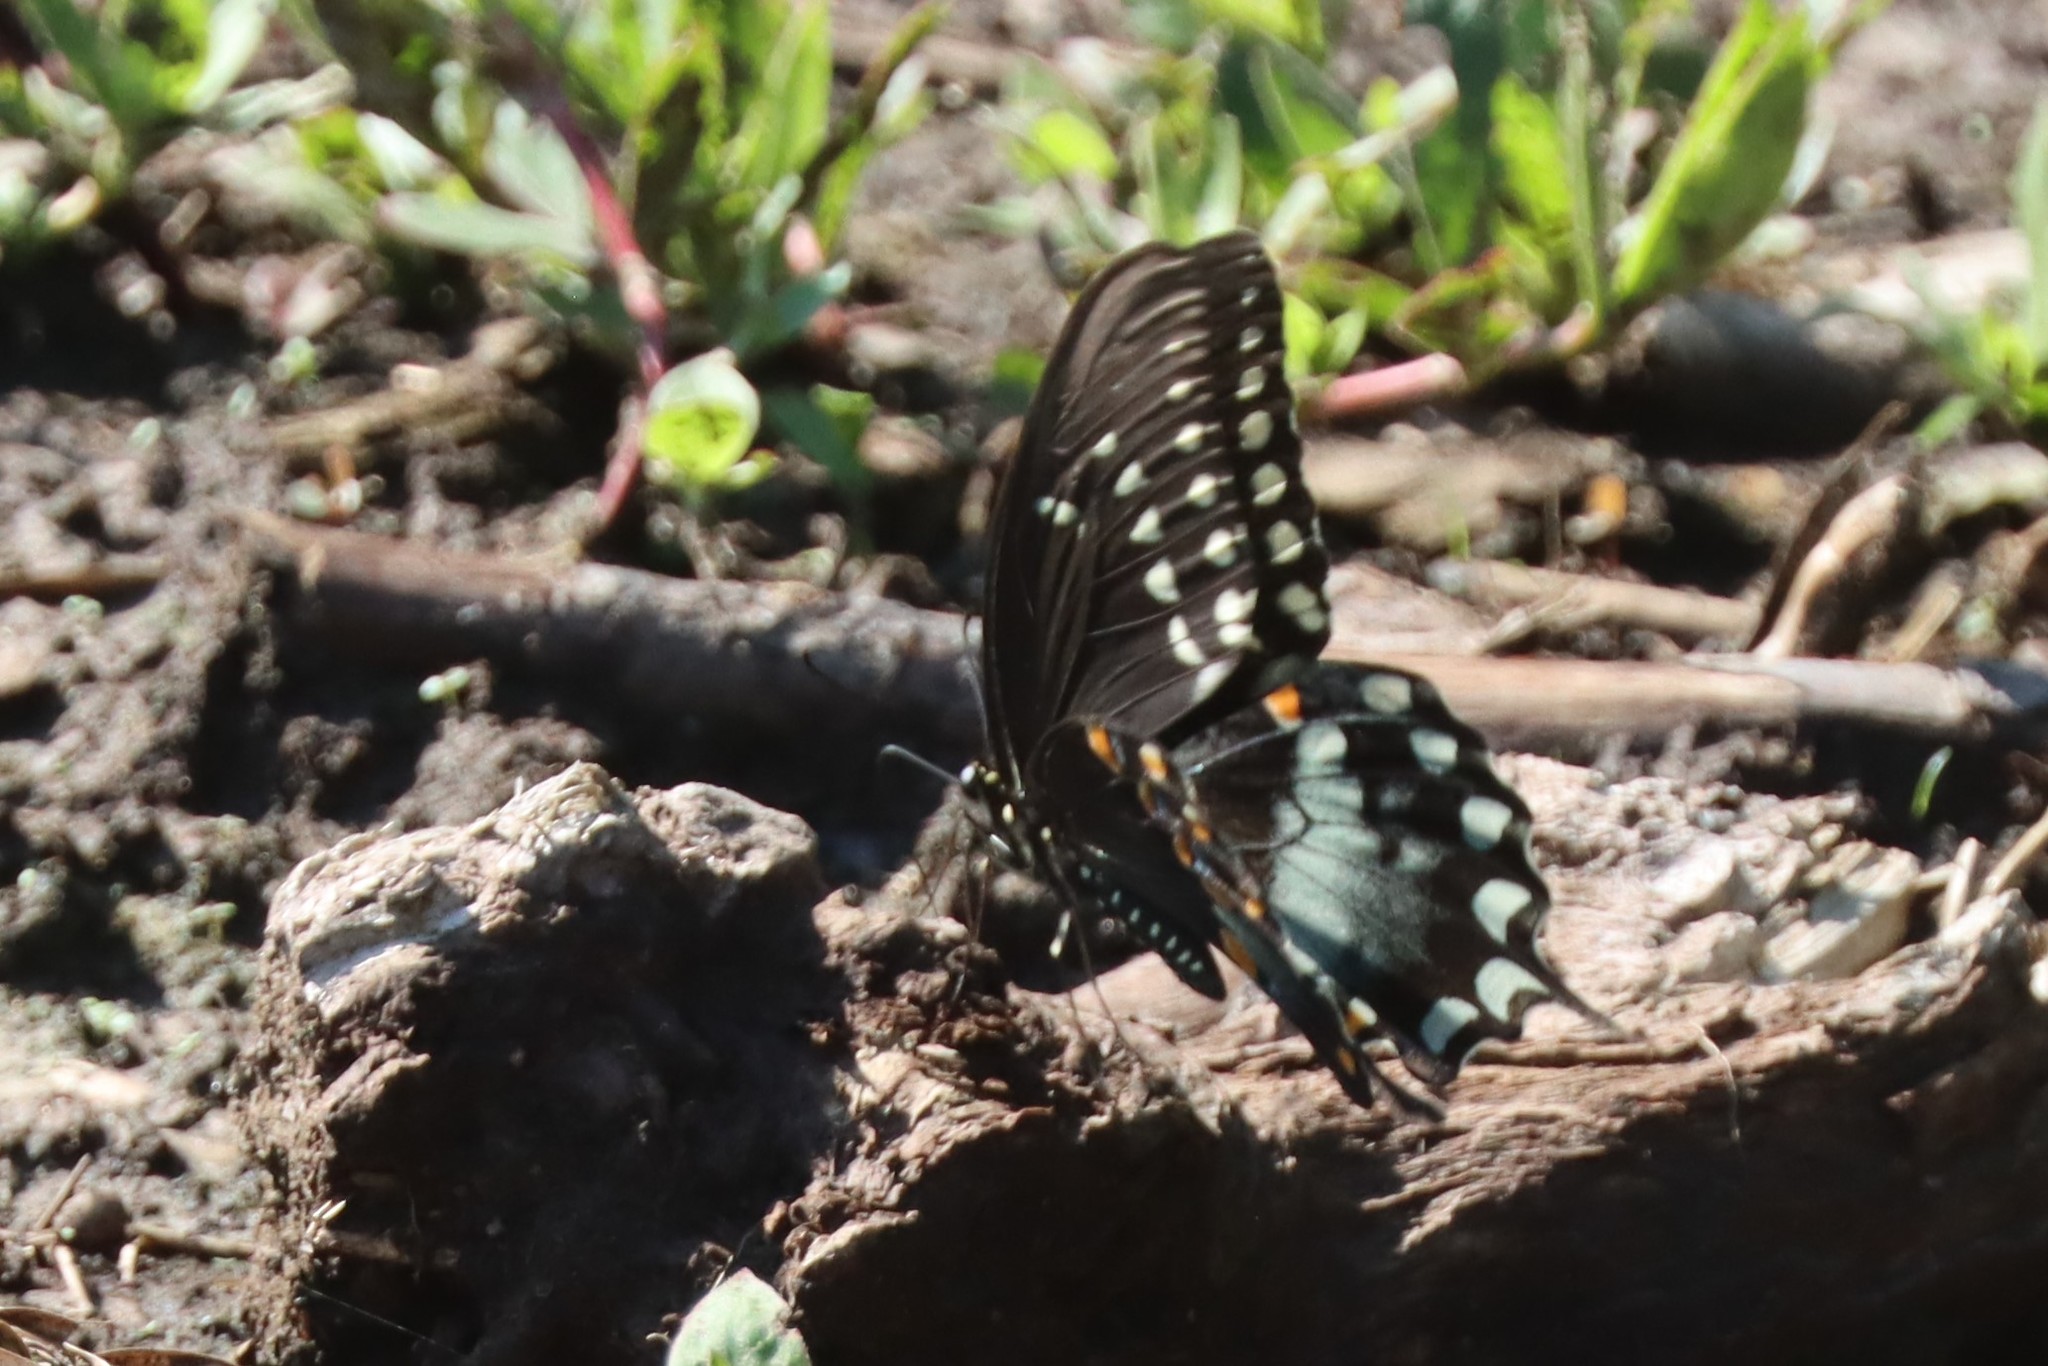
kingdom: Animalia
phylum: Arthropoda
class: Insecta
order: Lepidoptera
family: Papilionidae
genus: Papilio
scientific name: Papilio troilus
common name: Spicebush swallowtail
